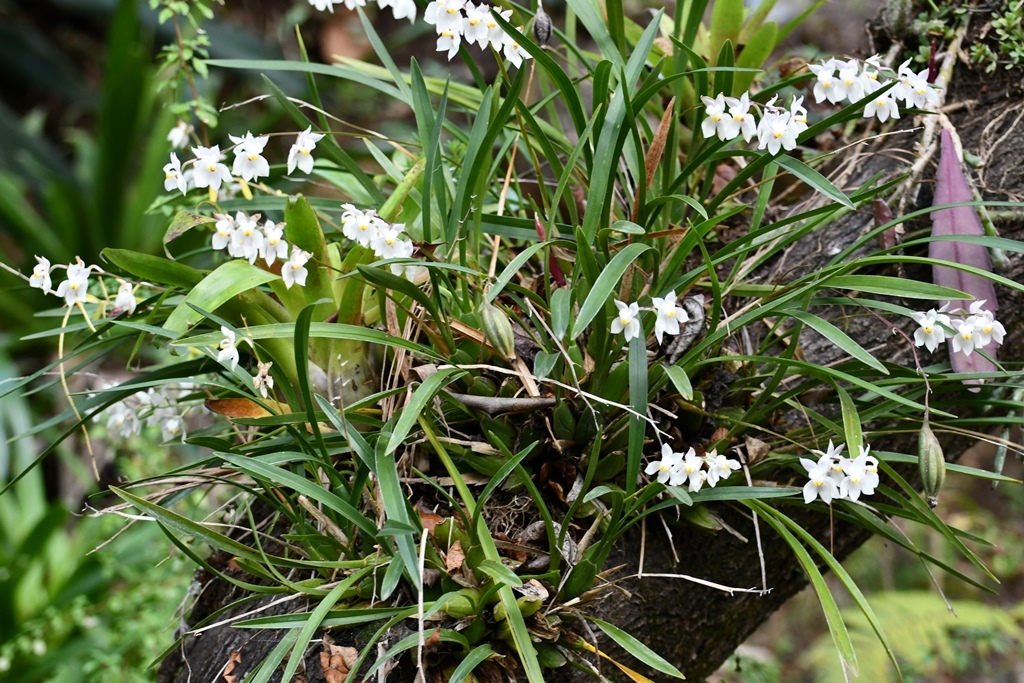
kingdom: Plantae
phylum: Tracheophyta
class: Liliopsida
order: Asparagales
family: Orchidaceae
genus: Cuitlauzina
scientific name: Cuitlauzina pulchella
